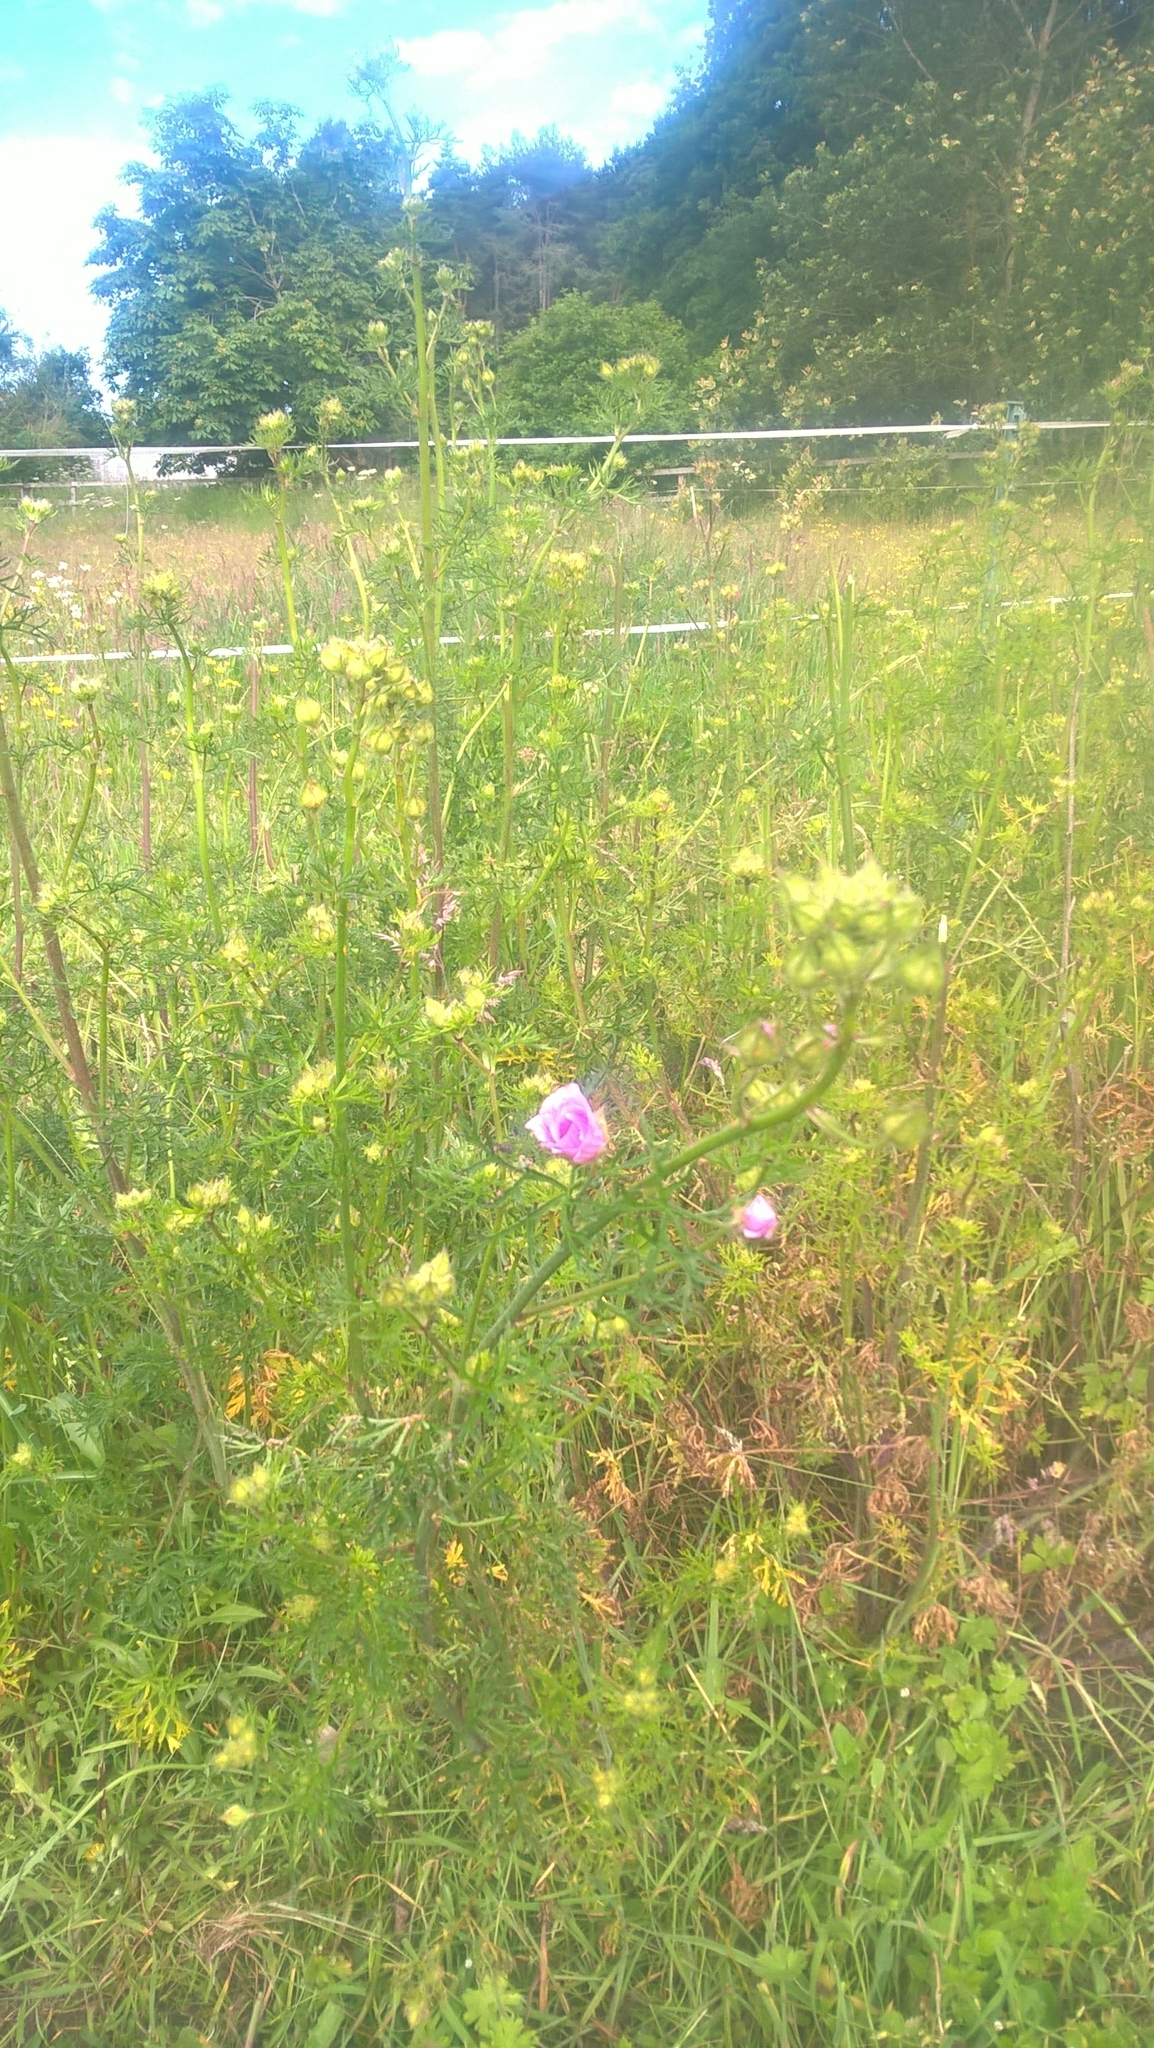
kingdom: Plantae
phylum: Tracheophyta
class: Magnoliopsida
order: Malvales
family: Malvaceae
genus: Malva
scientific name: Malva moschata
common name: Musk mallow
